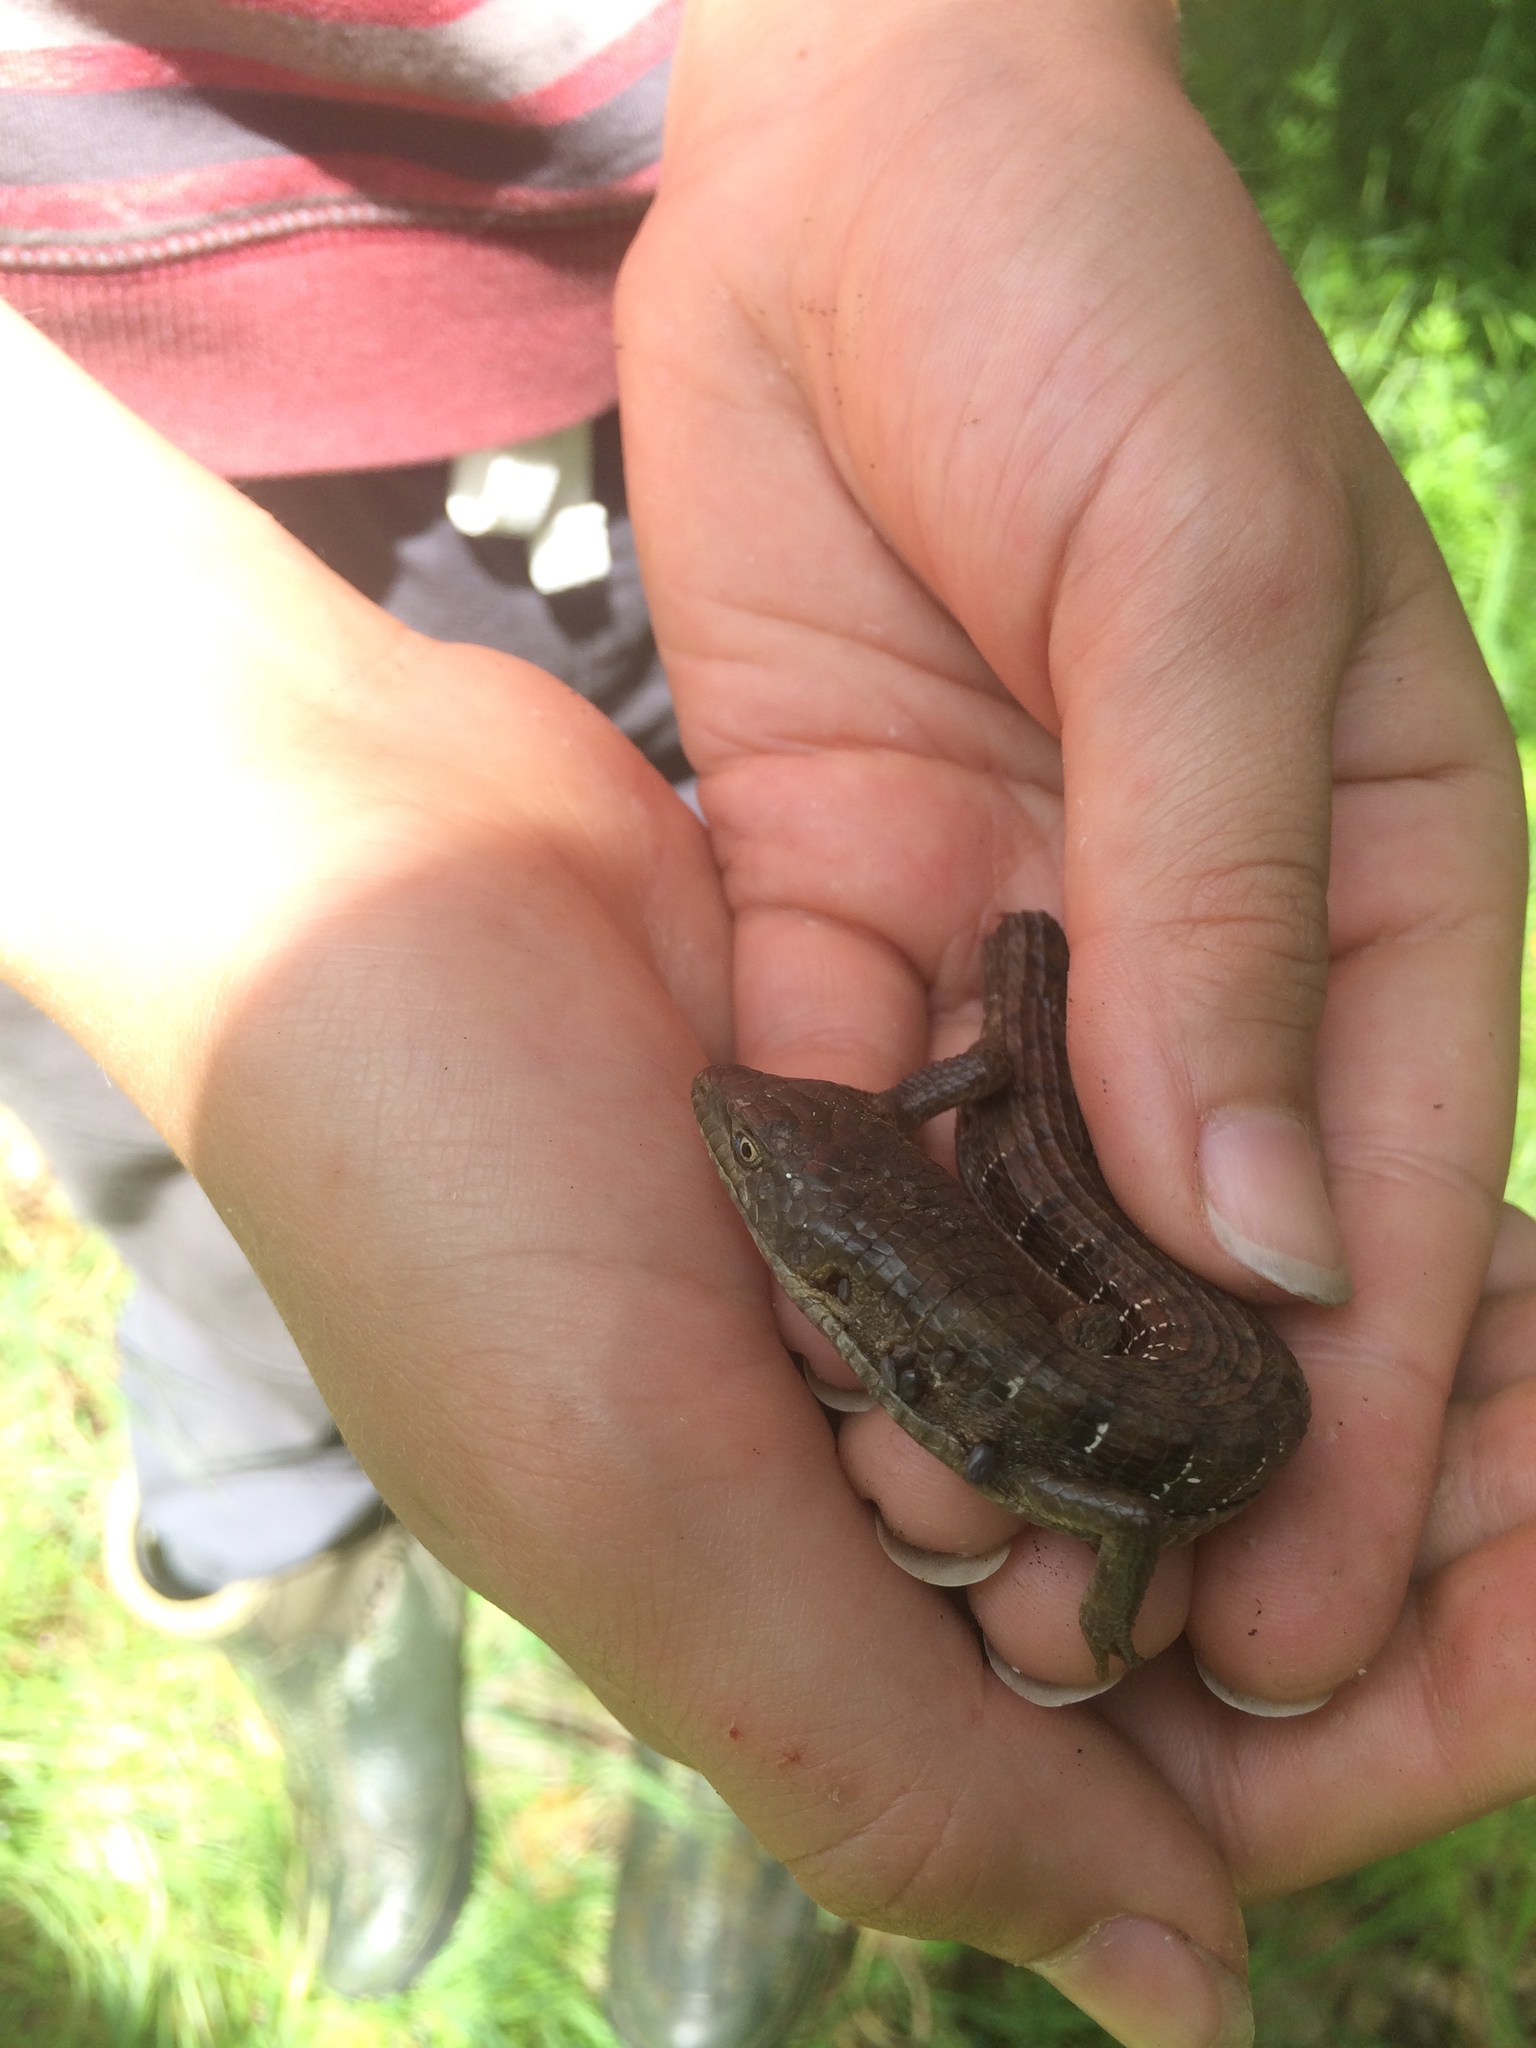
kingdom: Animalia
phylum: Chordata
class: Squamata
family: Anguidae
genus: Elgaria
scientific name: Elgaria multicarinata
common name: Southern alligator lizard
